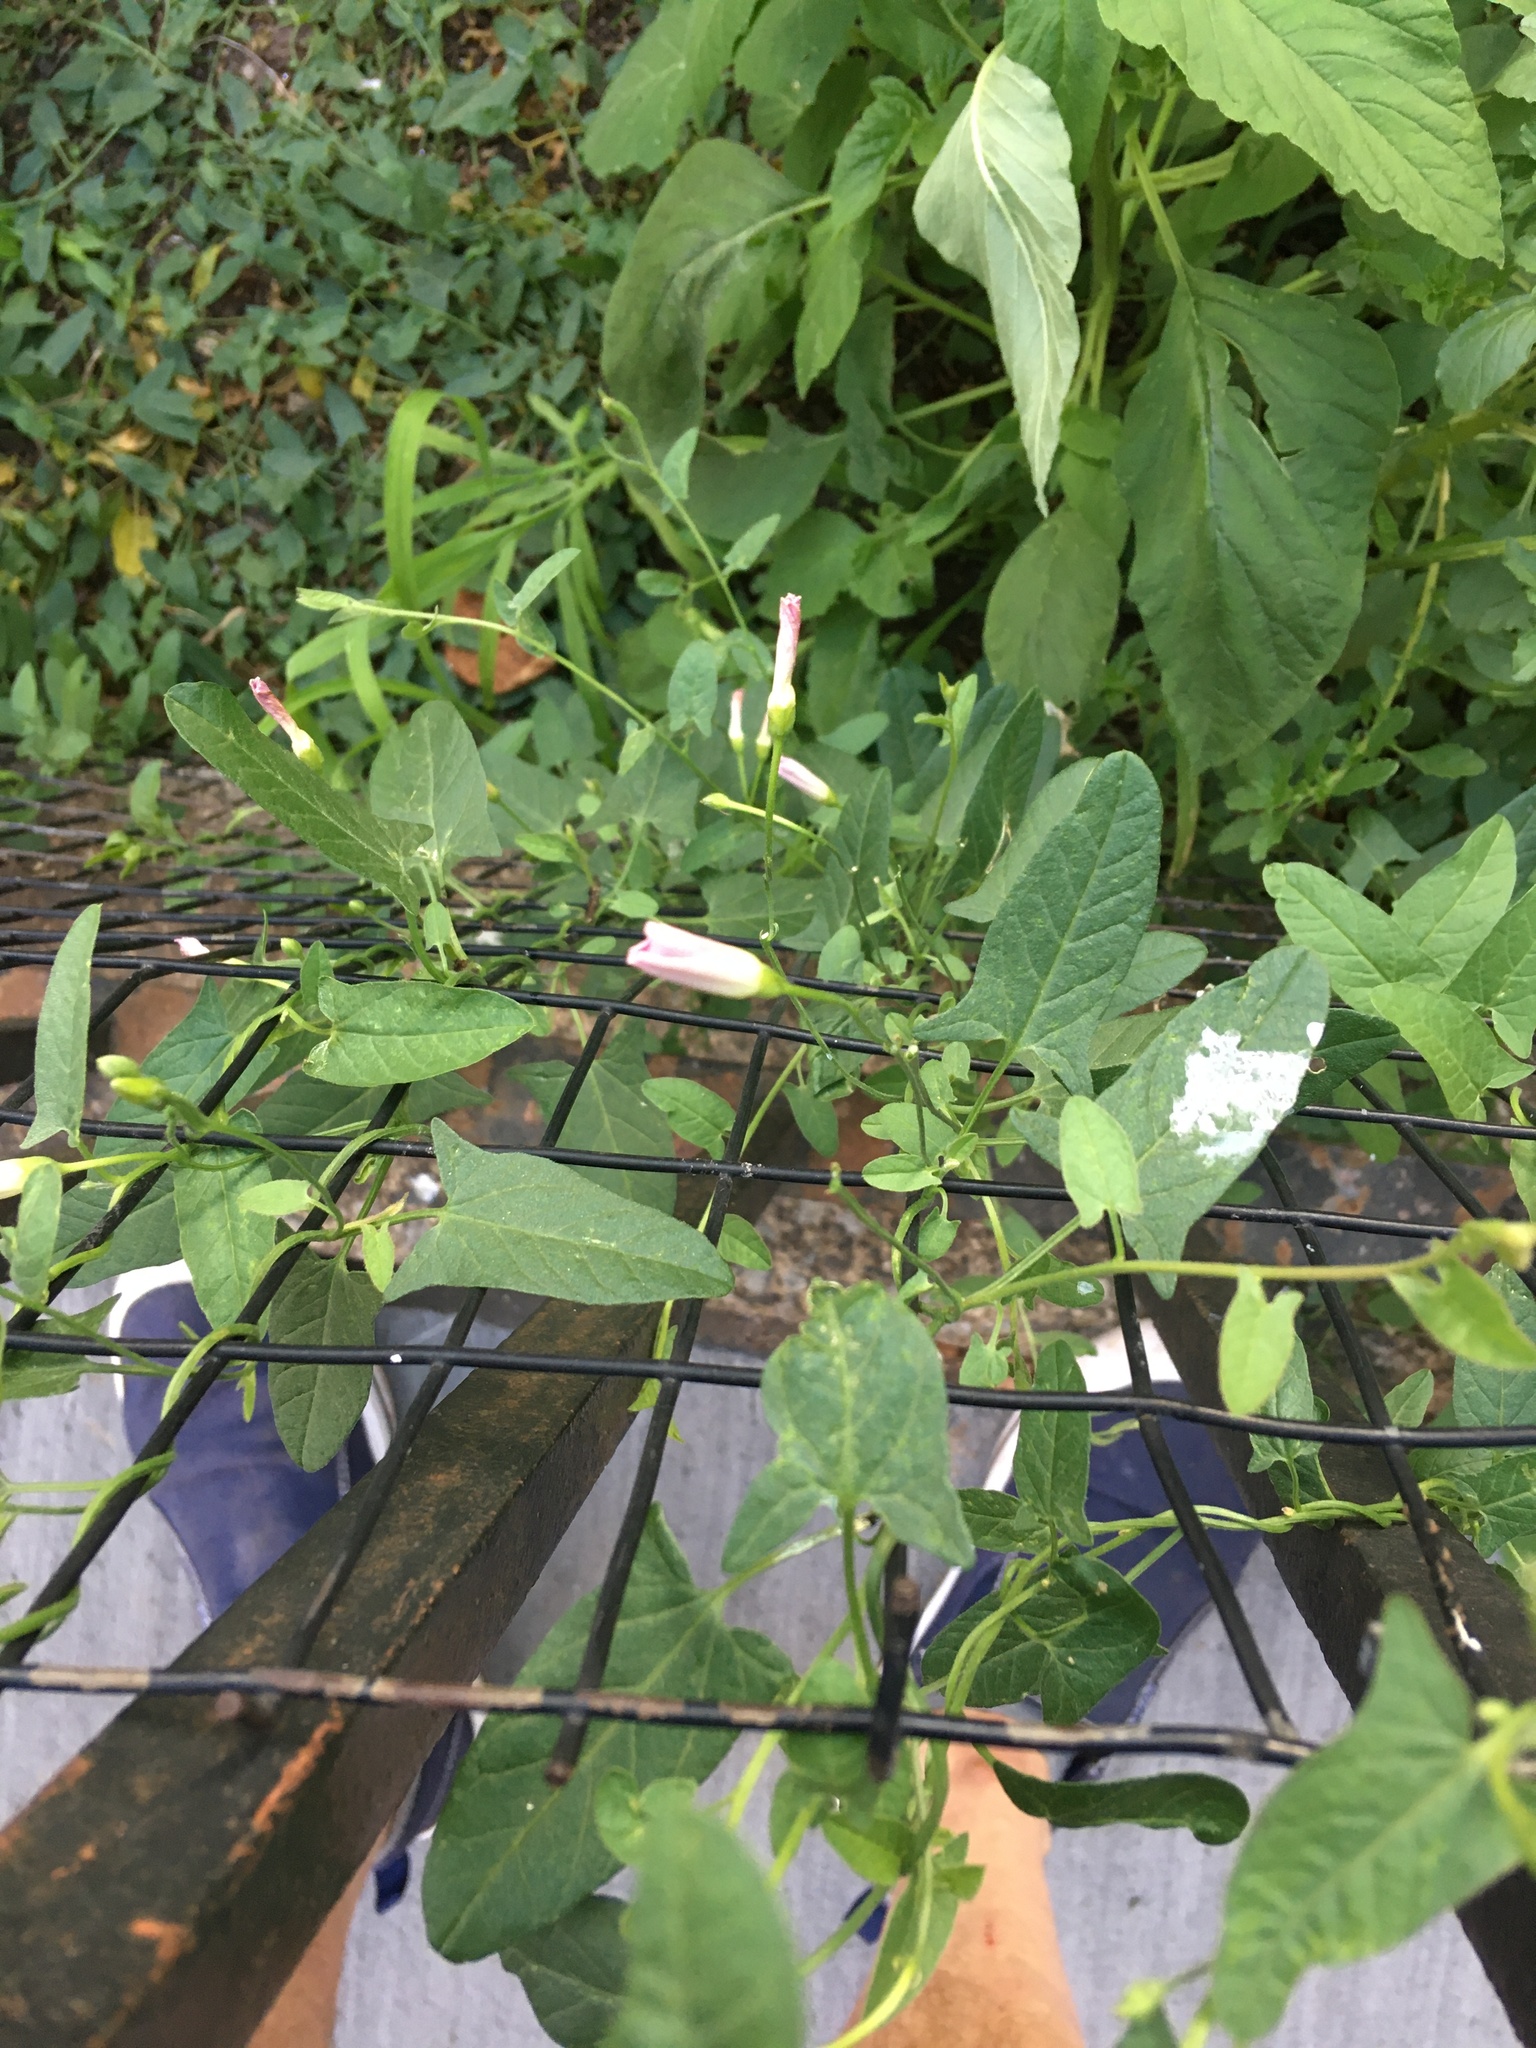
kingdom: Plantae
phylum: Tracheophyta
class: Magnoliopsida
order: Solanales
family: Convolvulaceae
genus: Convolvulus
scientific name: Convolvulus arvensis
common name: Field bindweed
